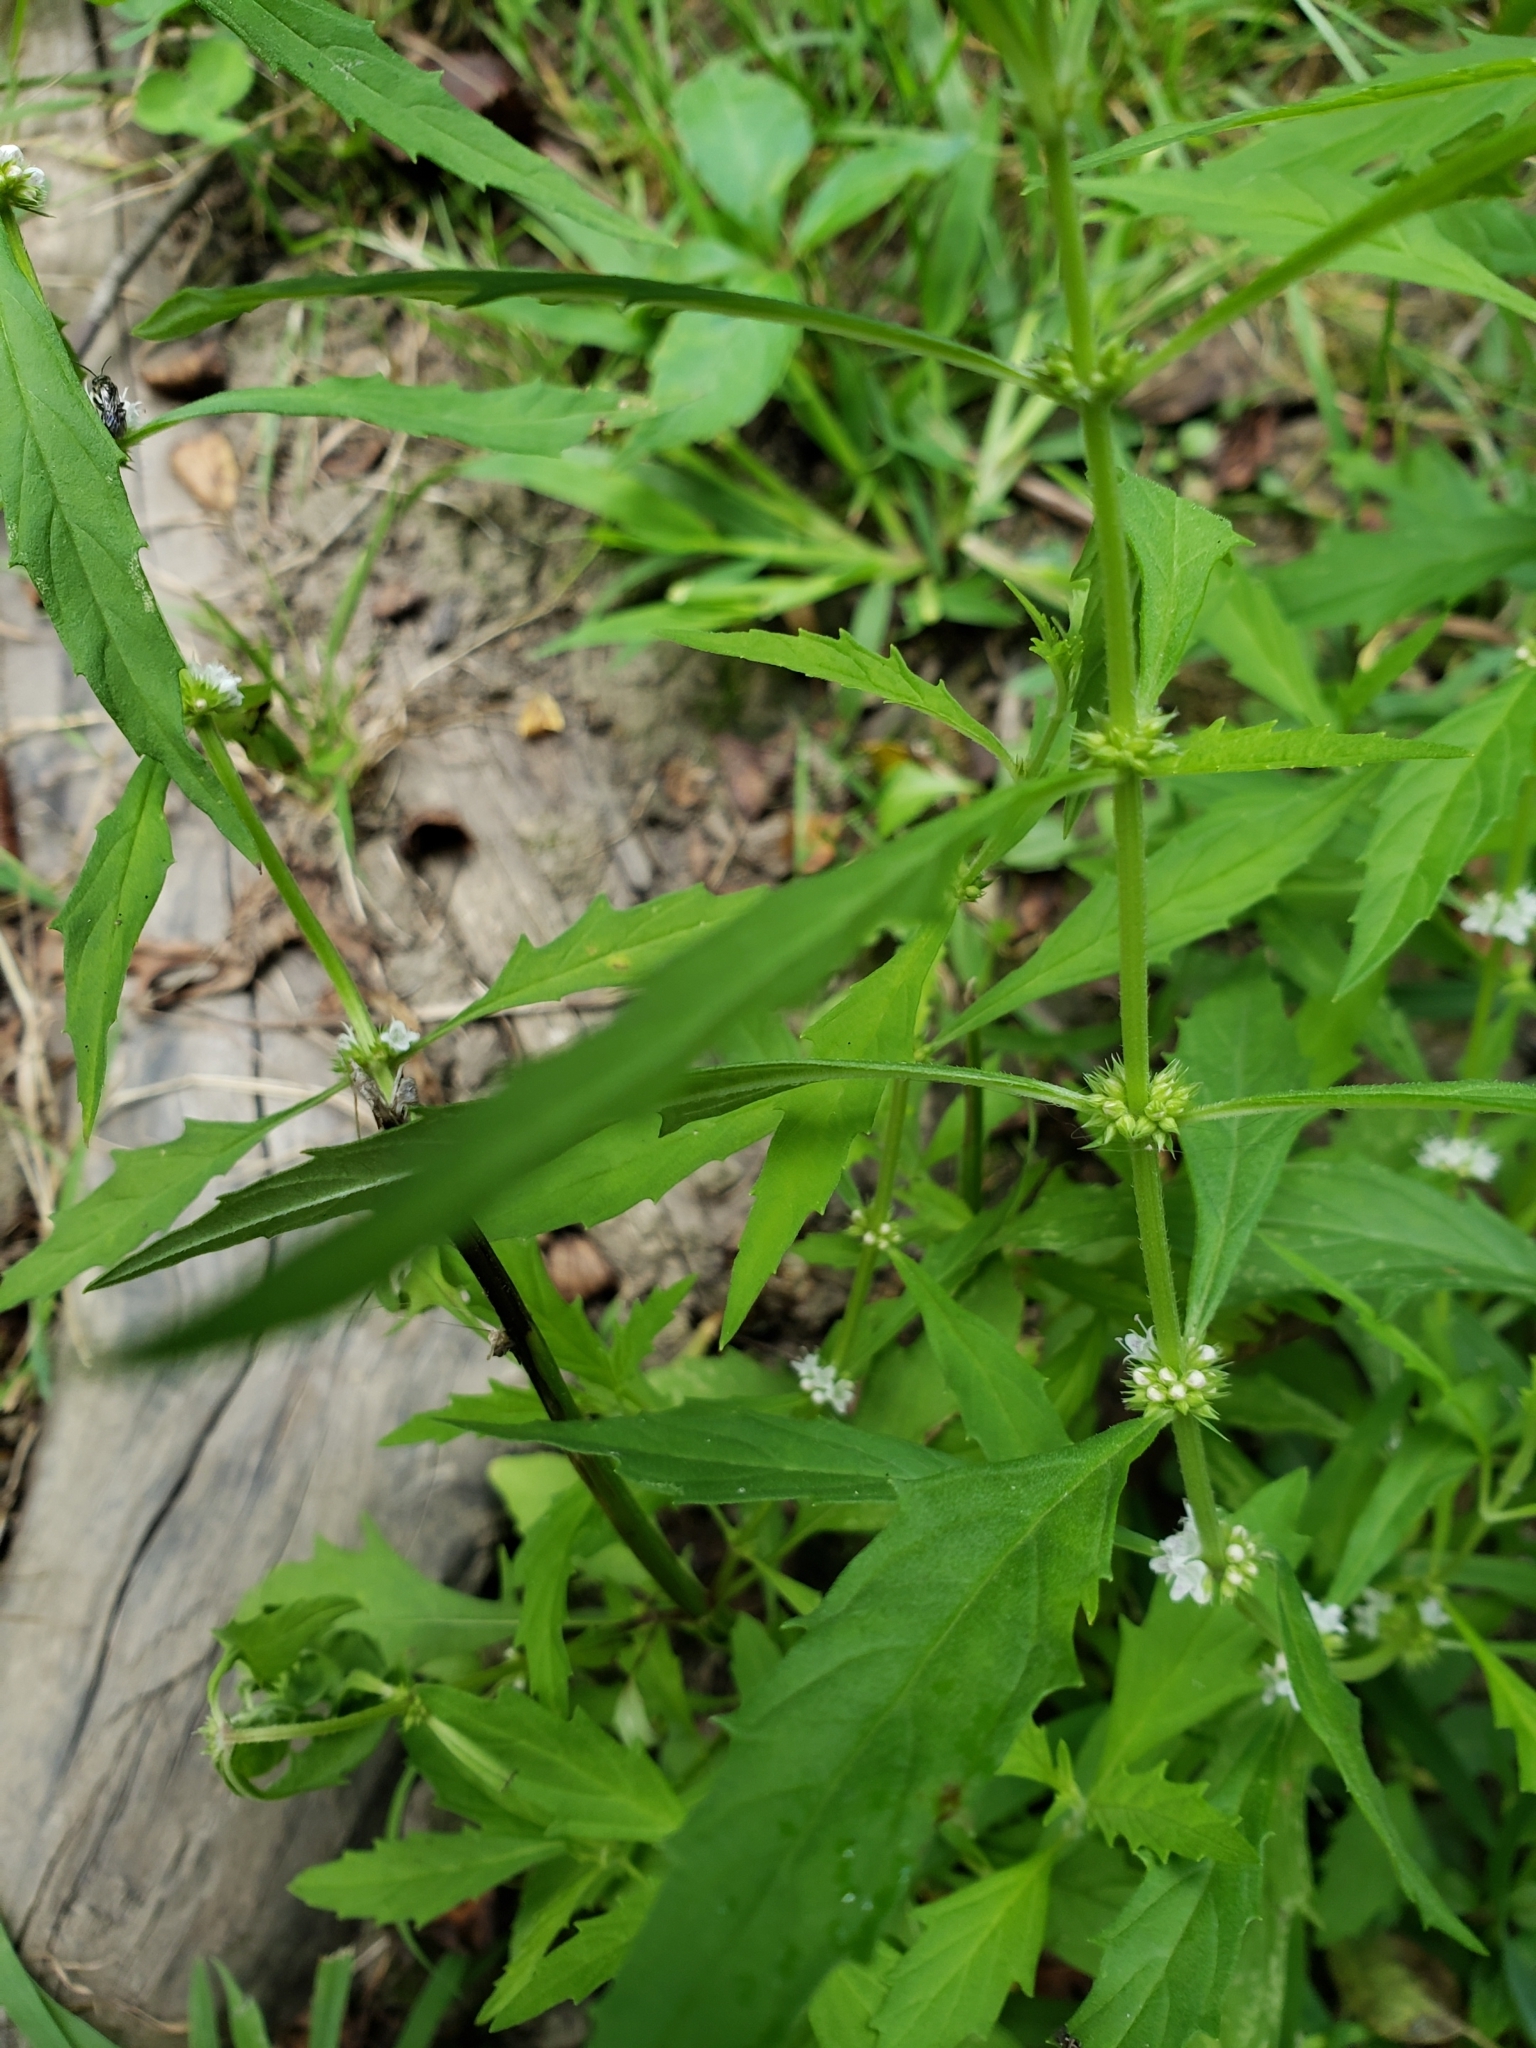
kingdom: Plantae
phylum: Tracheophyta
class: Magnoliopsida
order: Lamiales
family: Lamiaceae
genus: Lycopus
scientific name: Lycopus americanus
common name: American bugleweed
